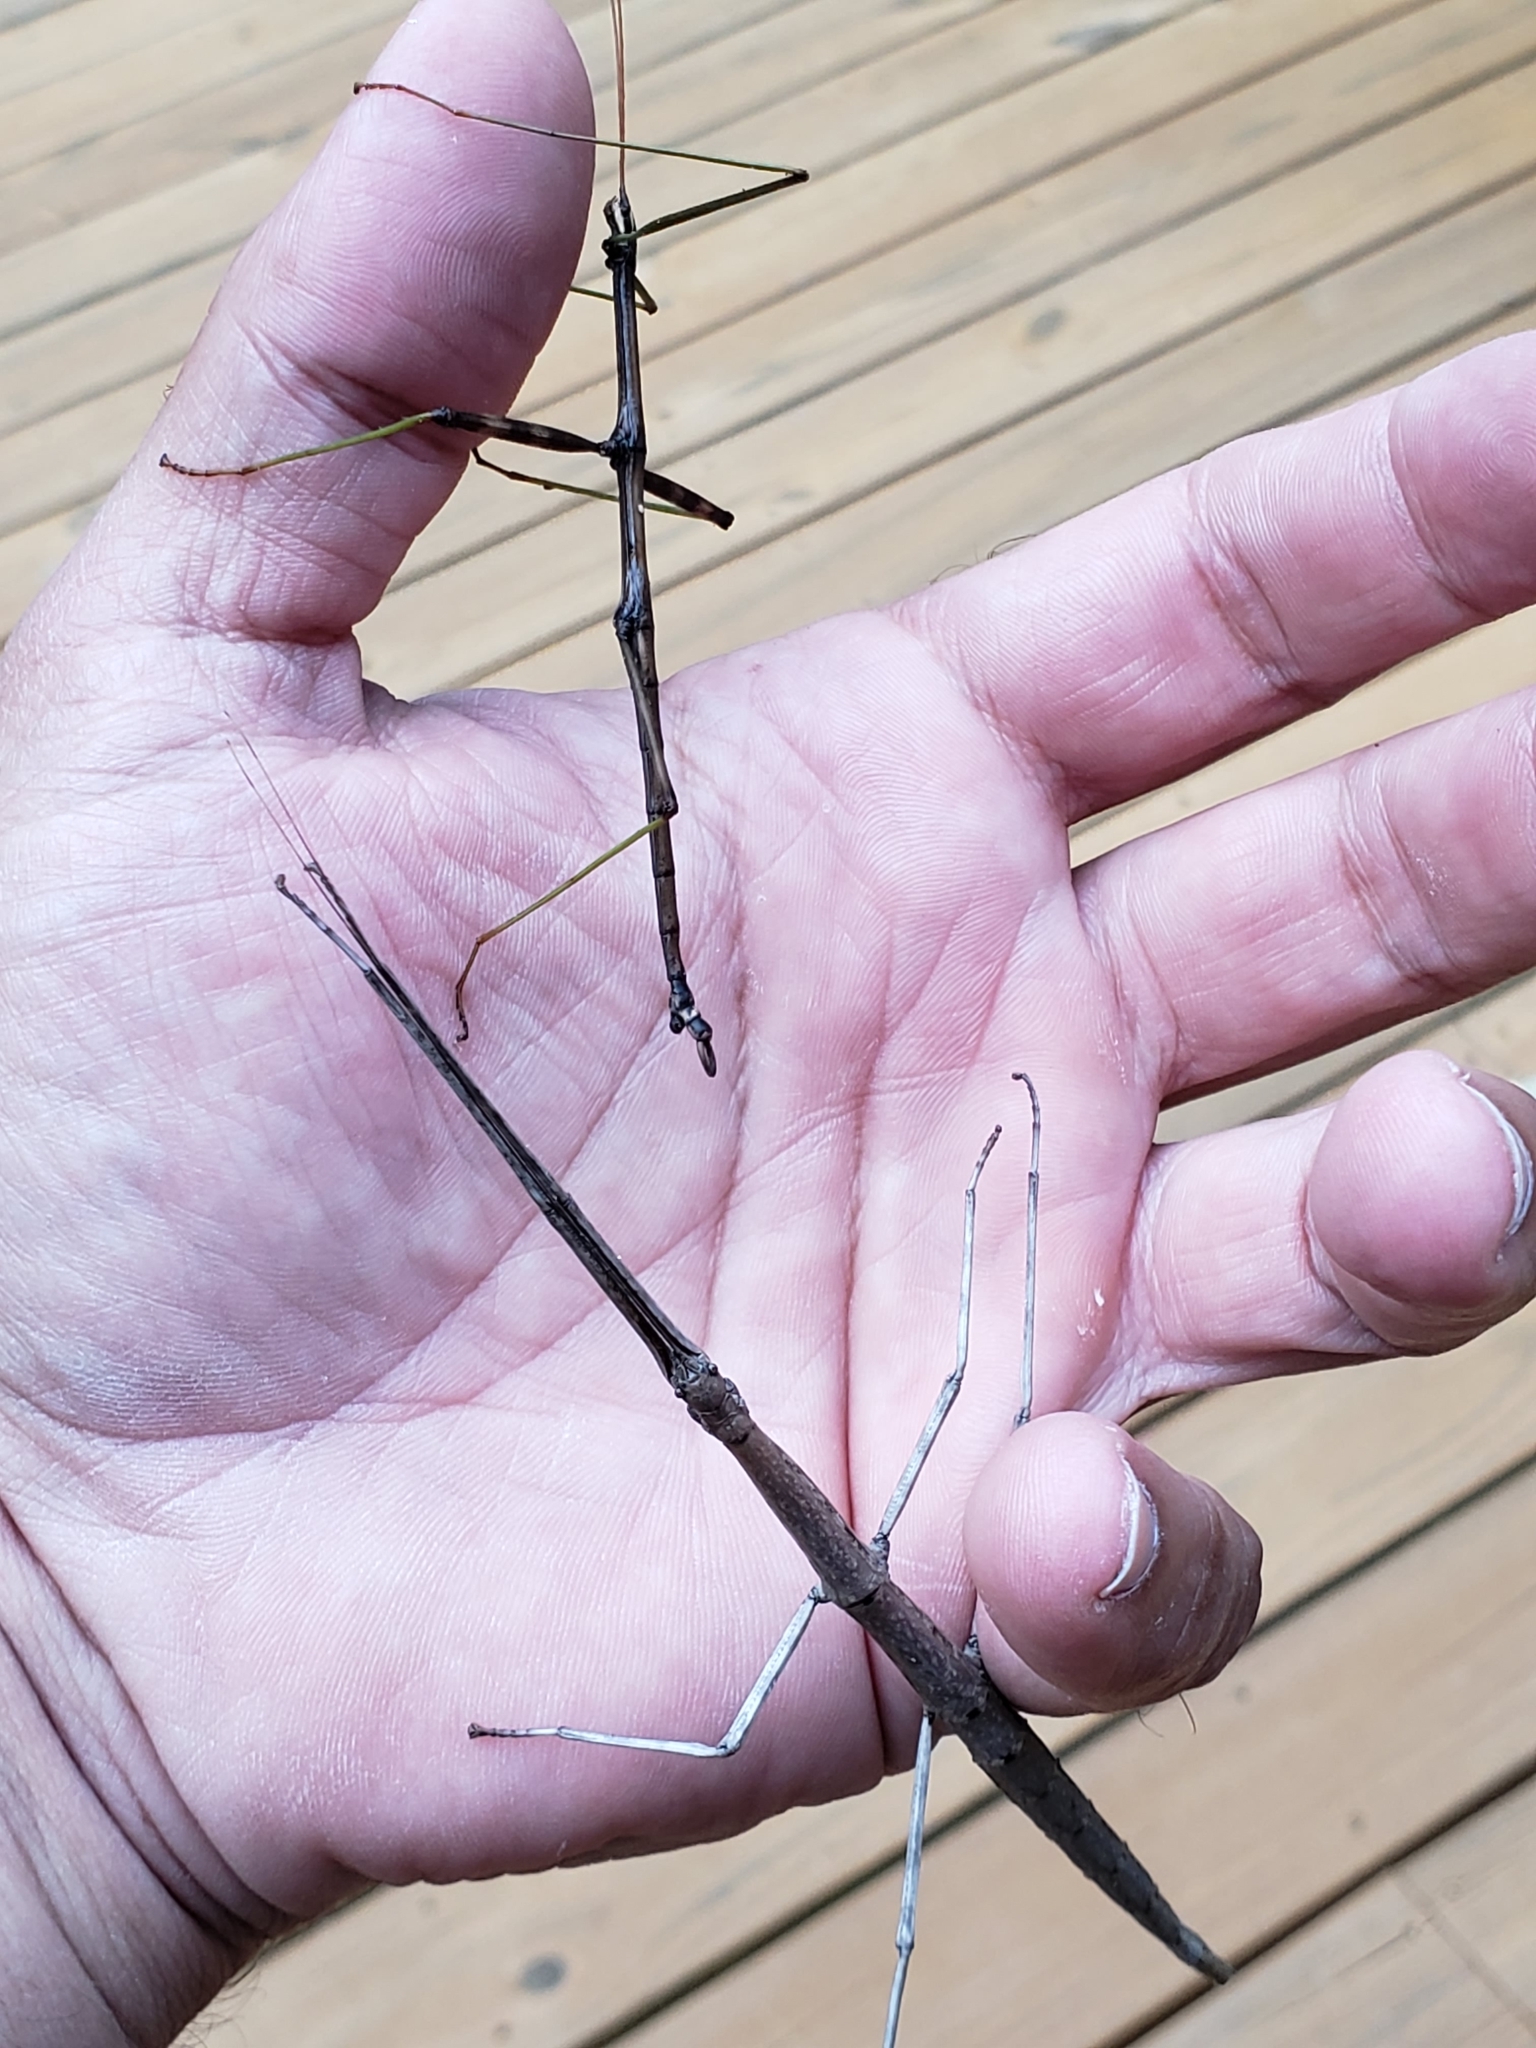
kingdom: Animalia
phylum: Arthropoda
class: Insecta
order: Phasmida
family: Diapheromeridae
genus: Diapheromera
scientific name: Diapheromera femorata
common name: Common american walkingstick
